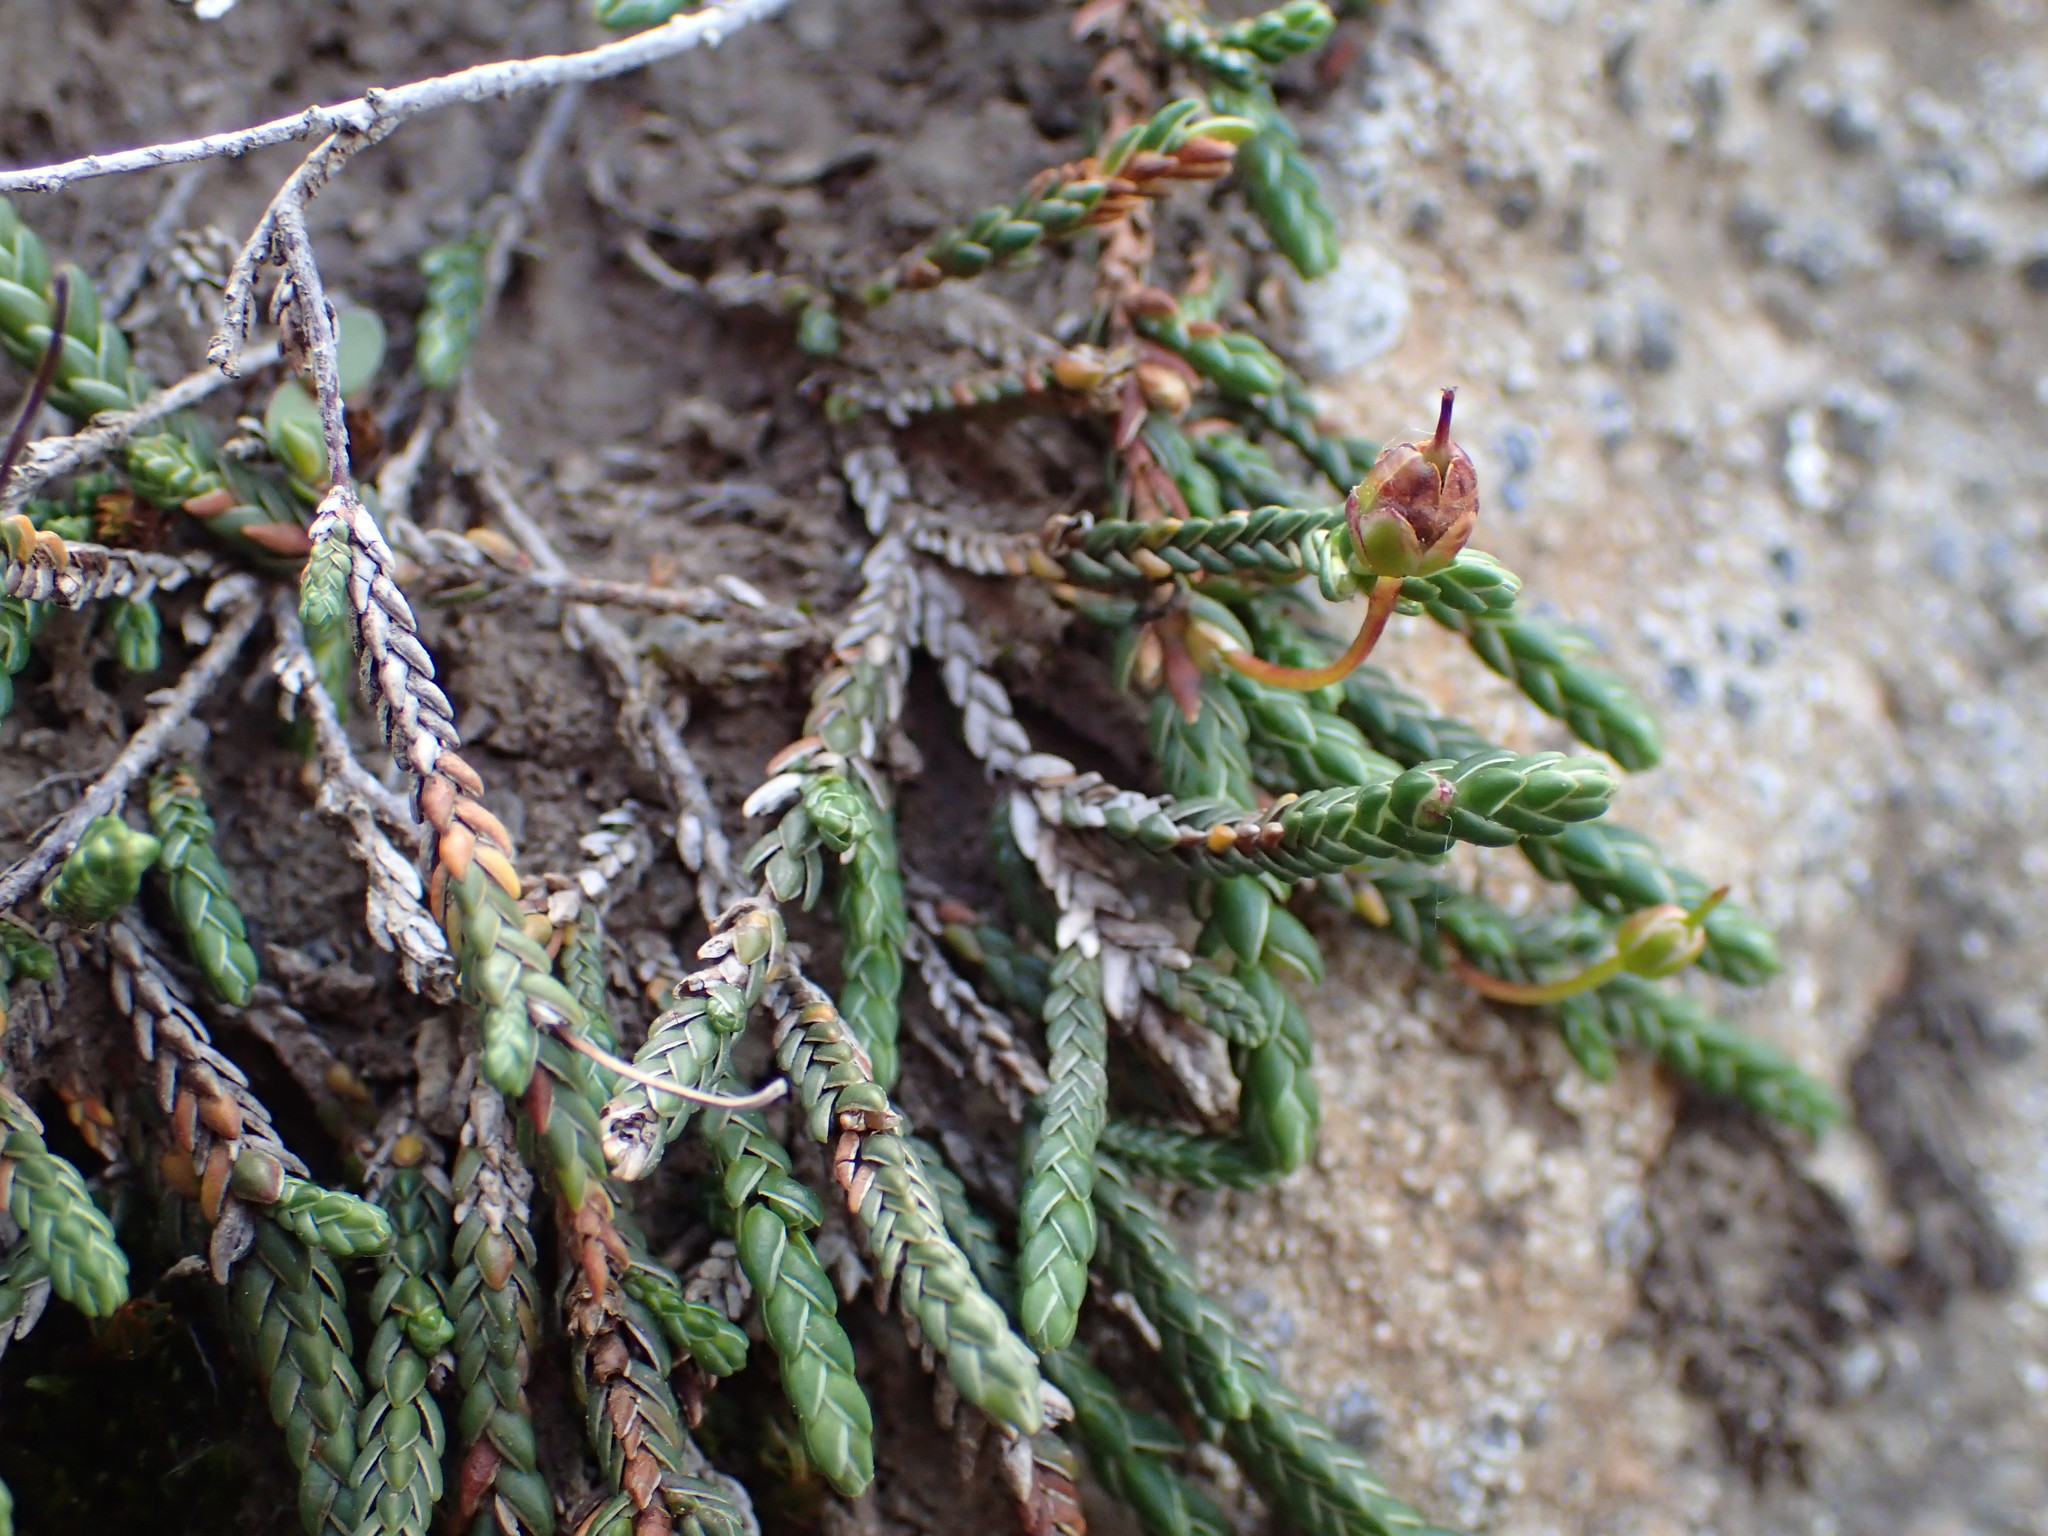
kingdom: Plantae
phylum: Tracheophyta
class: Magnoliopsida
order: Ericales
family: Ericaceae
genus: Cassiope
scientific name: Cassiope tetragona
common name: Arctic bell heather
